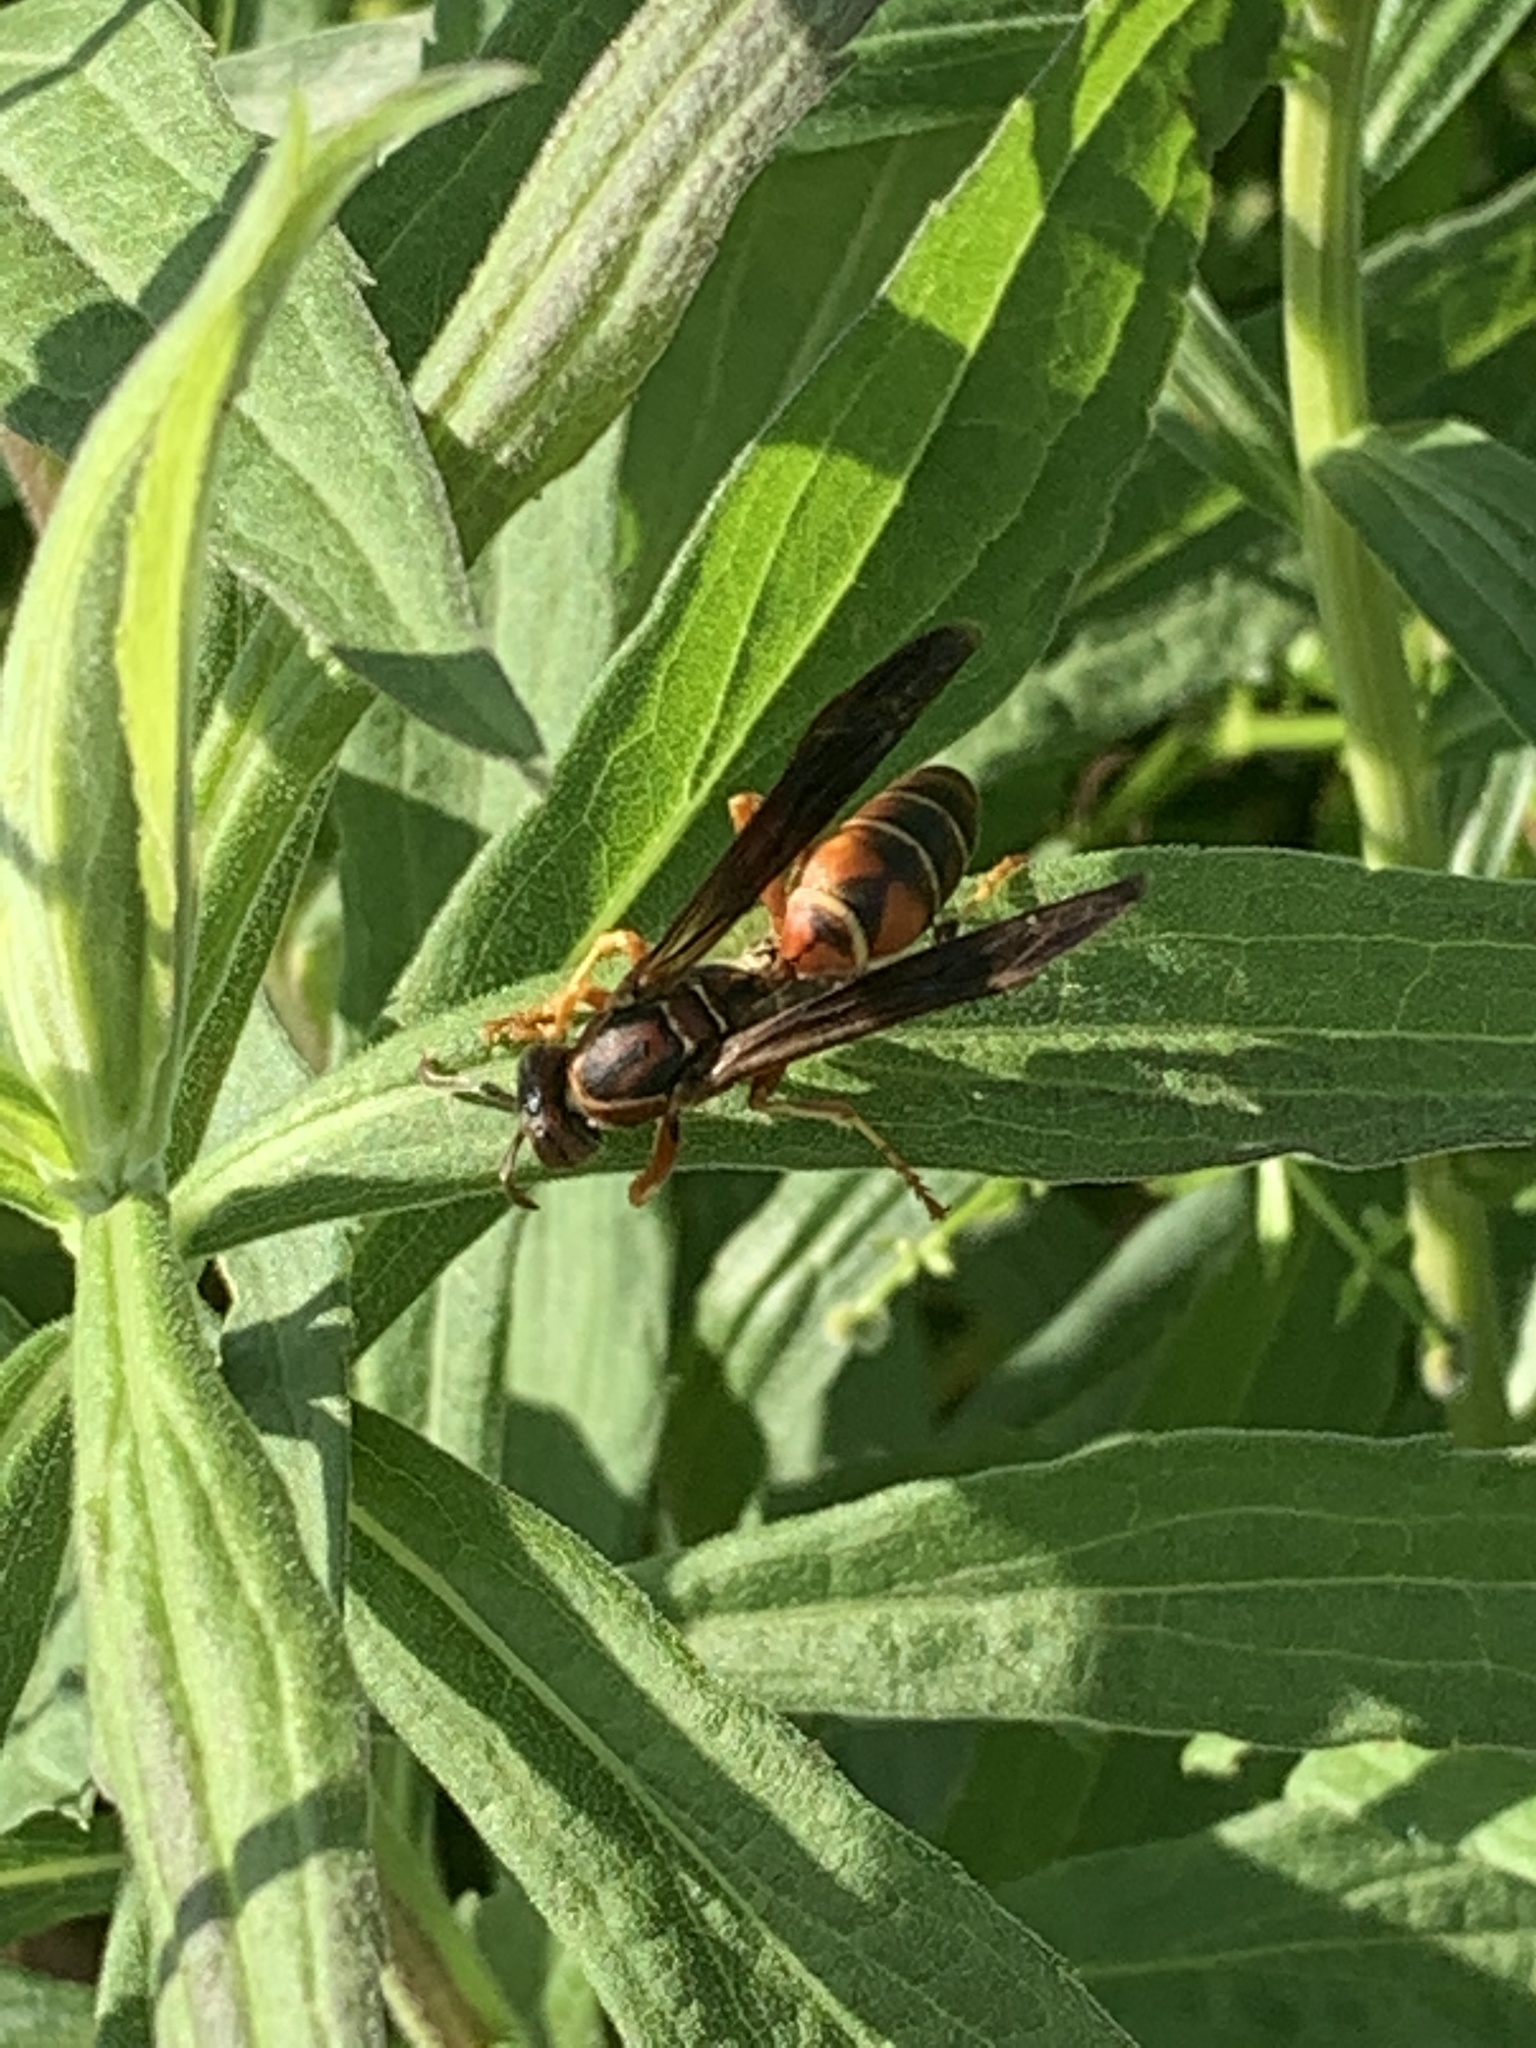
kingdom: Animalia
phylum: Arthropoda
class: Insecta
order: Hymenoptera
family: Eumenidae
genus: Polistes
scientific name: Polistes fuscatus
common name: Dark paper wasp
